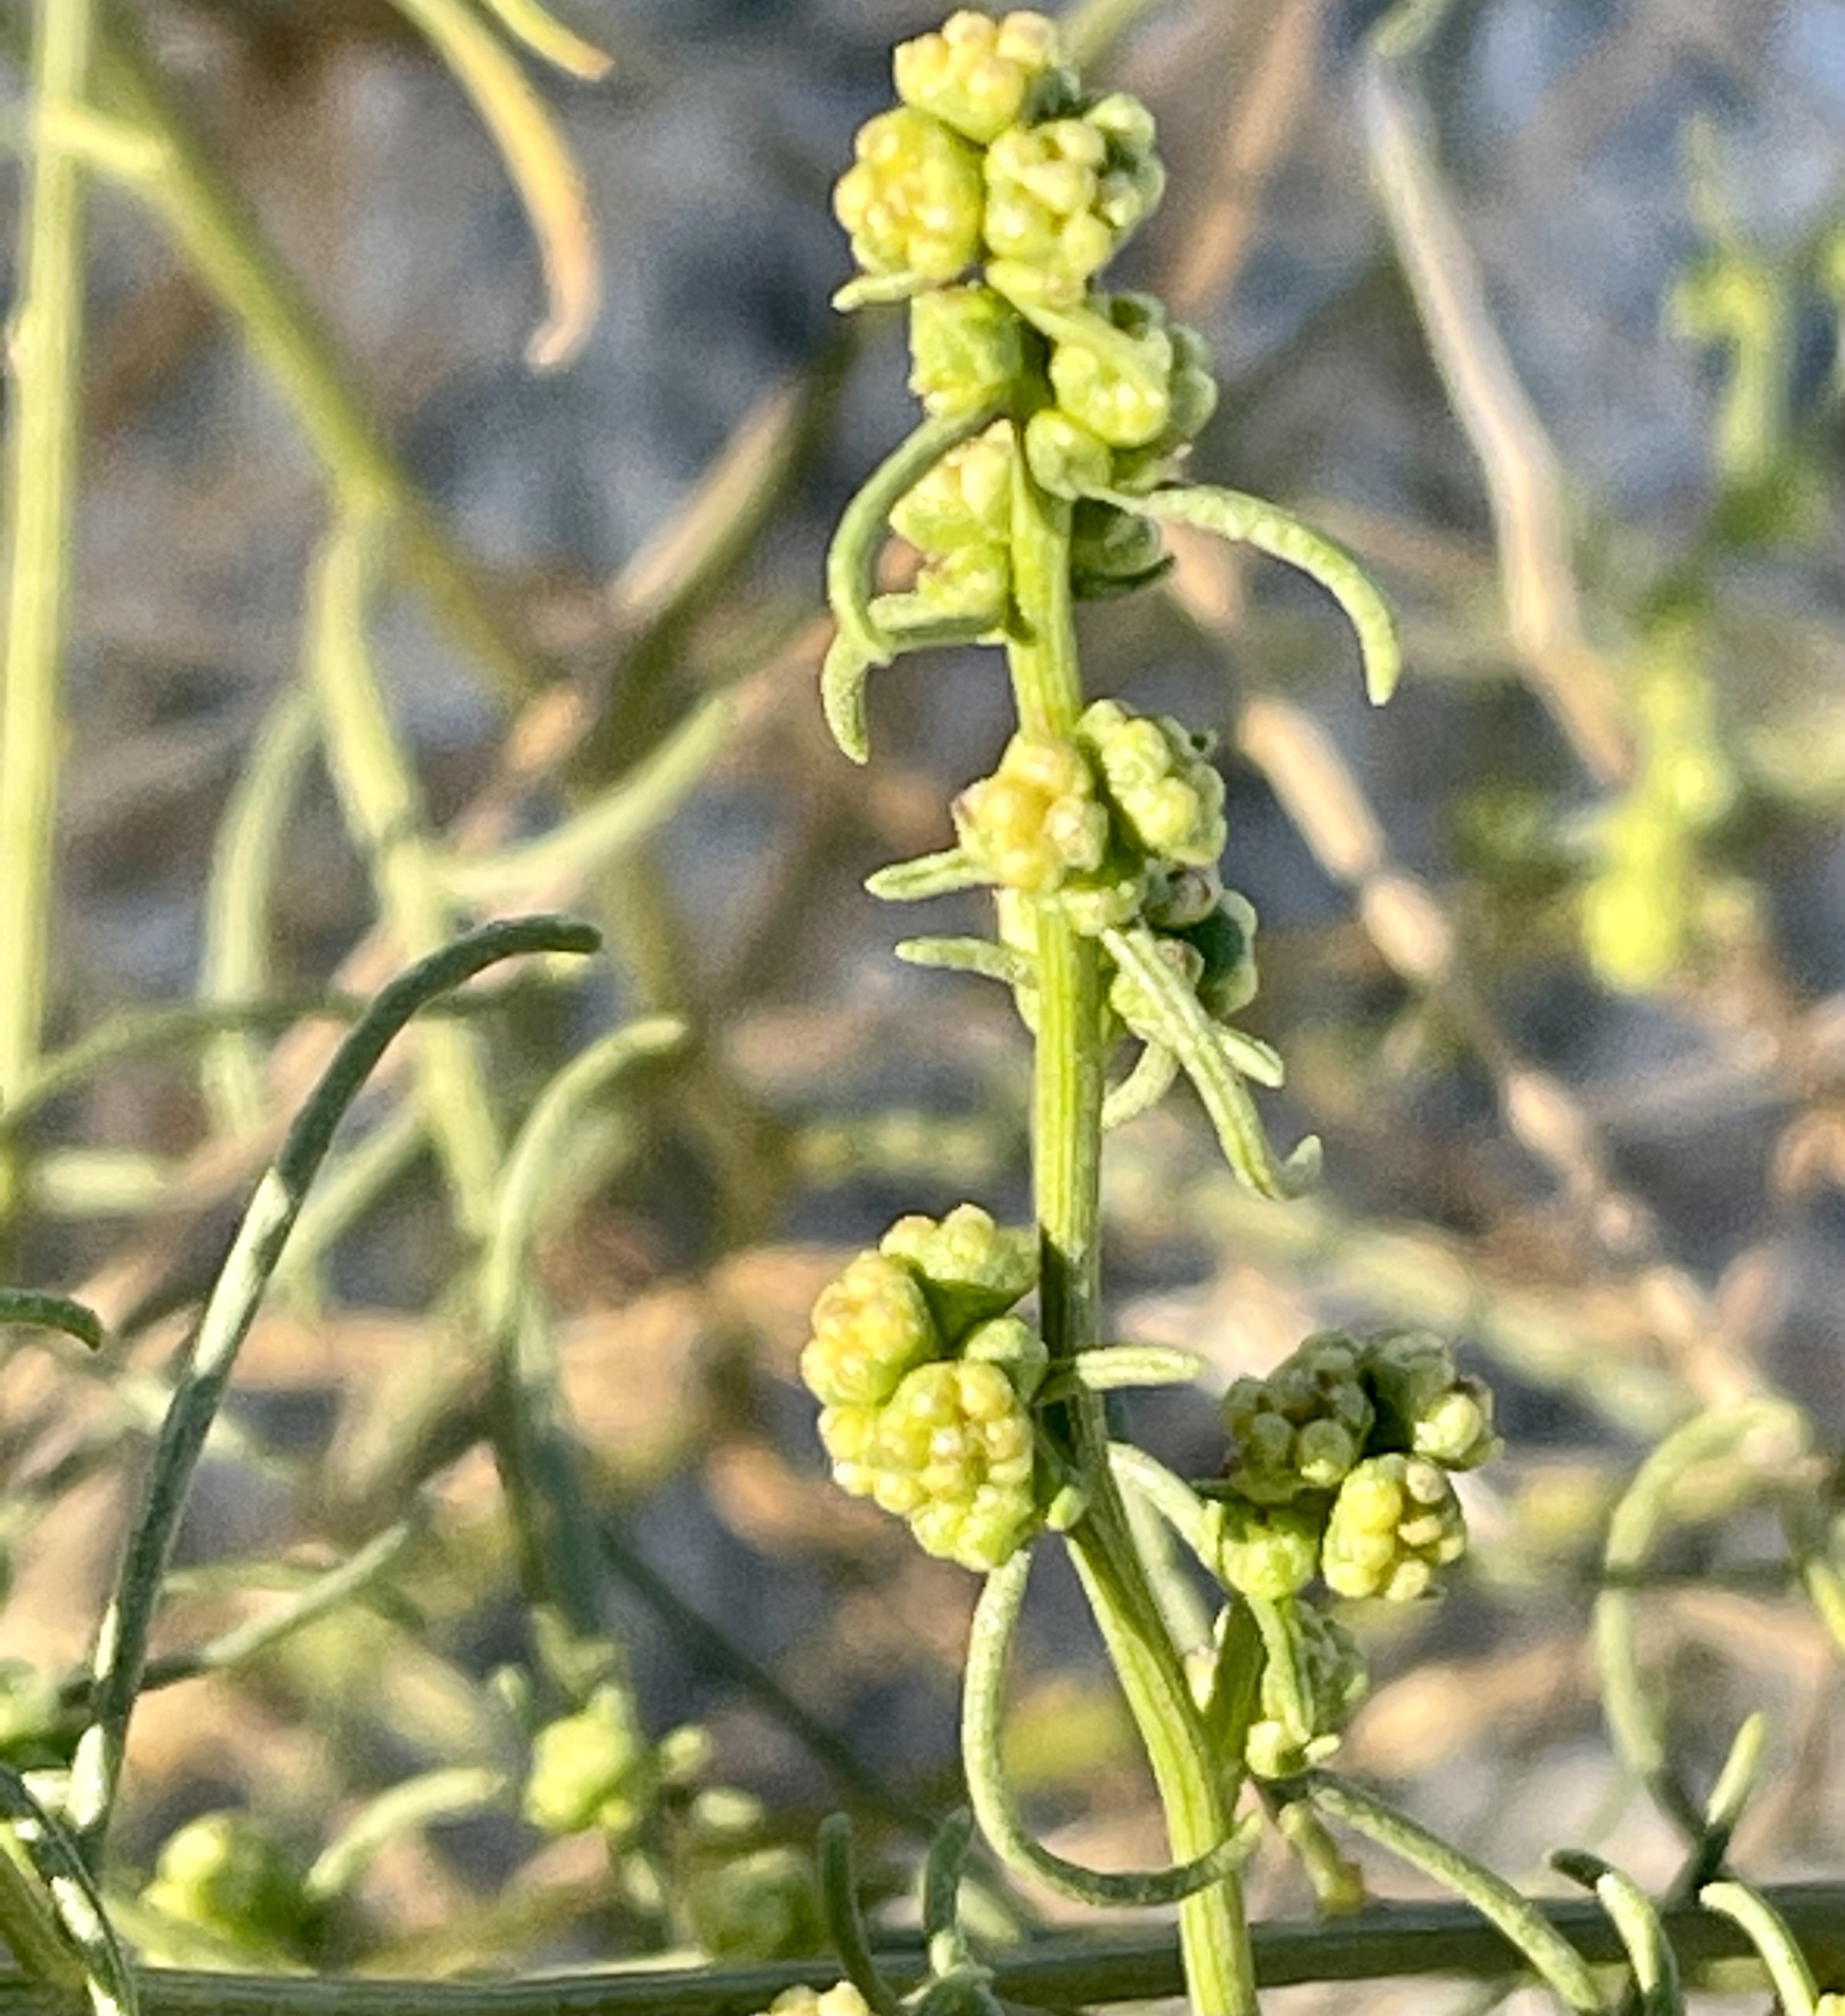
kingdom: Plantae
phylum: Tracheophyta
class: Magnoliopsida
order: Asterales
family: Asteraceae
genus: Ambrosia
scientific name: Ambrosia salsola
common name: Burrobrush
